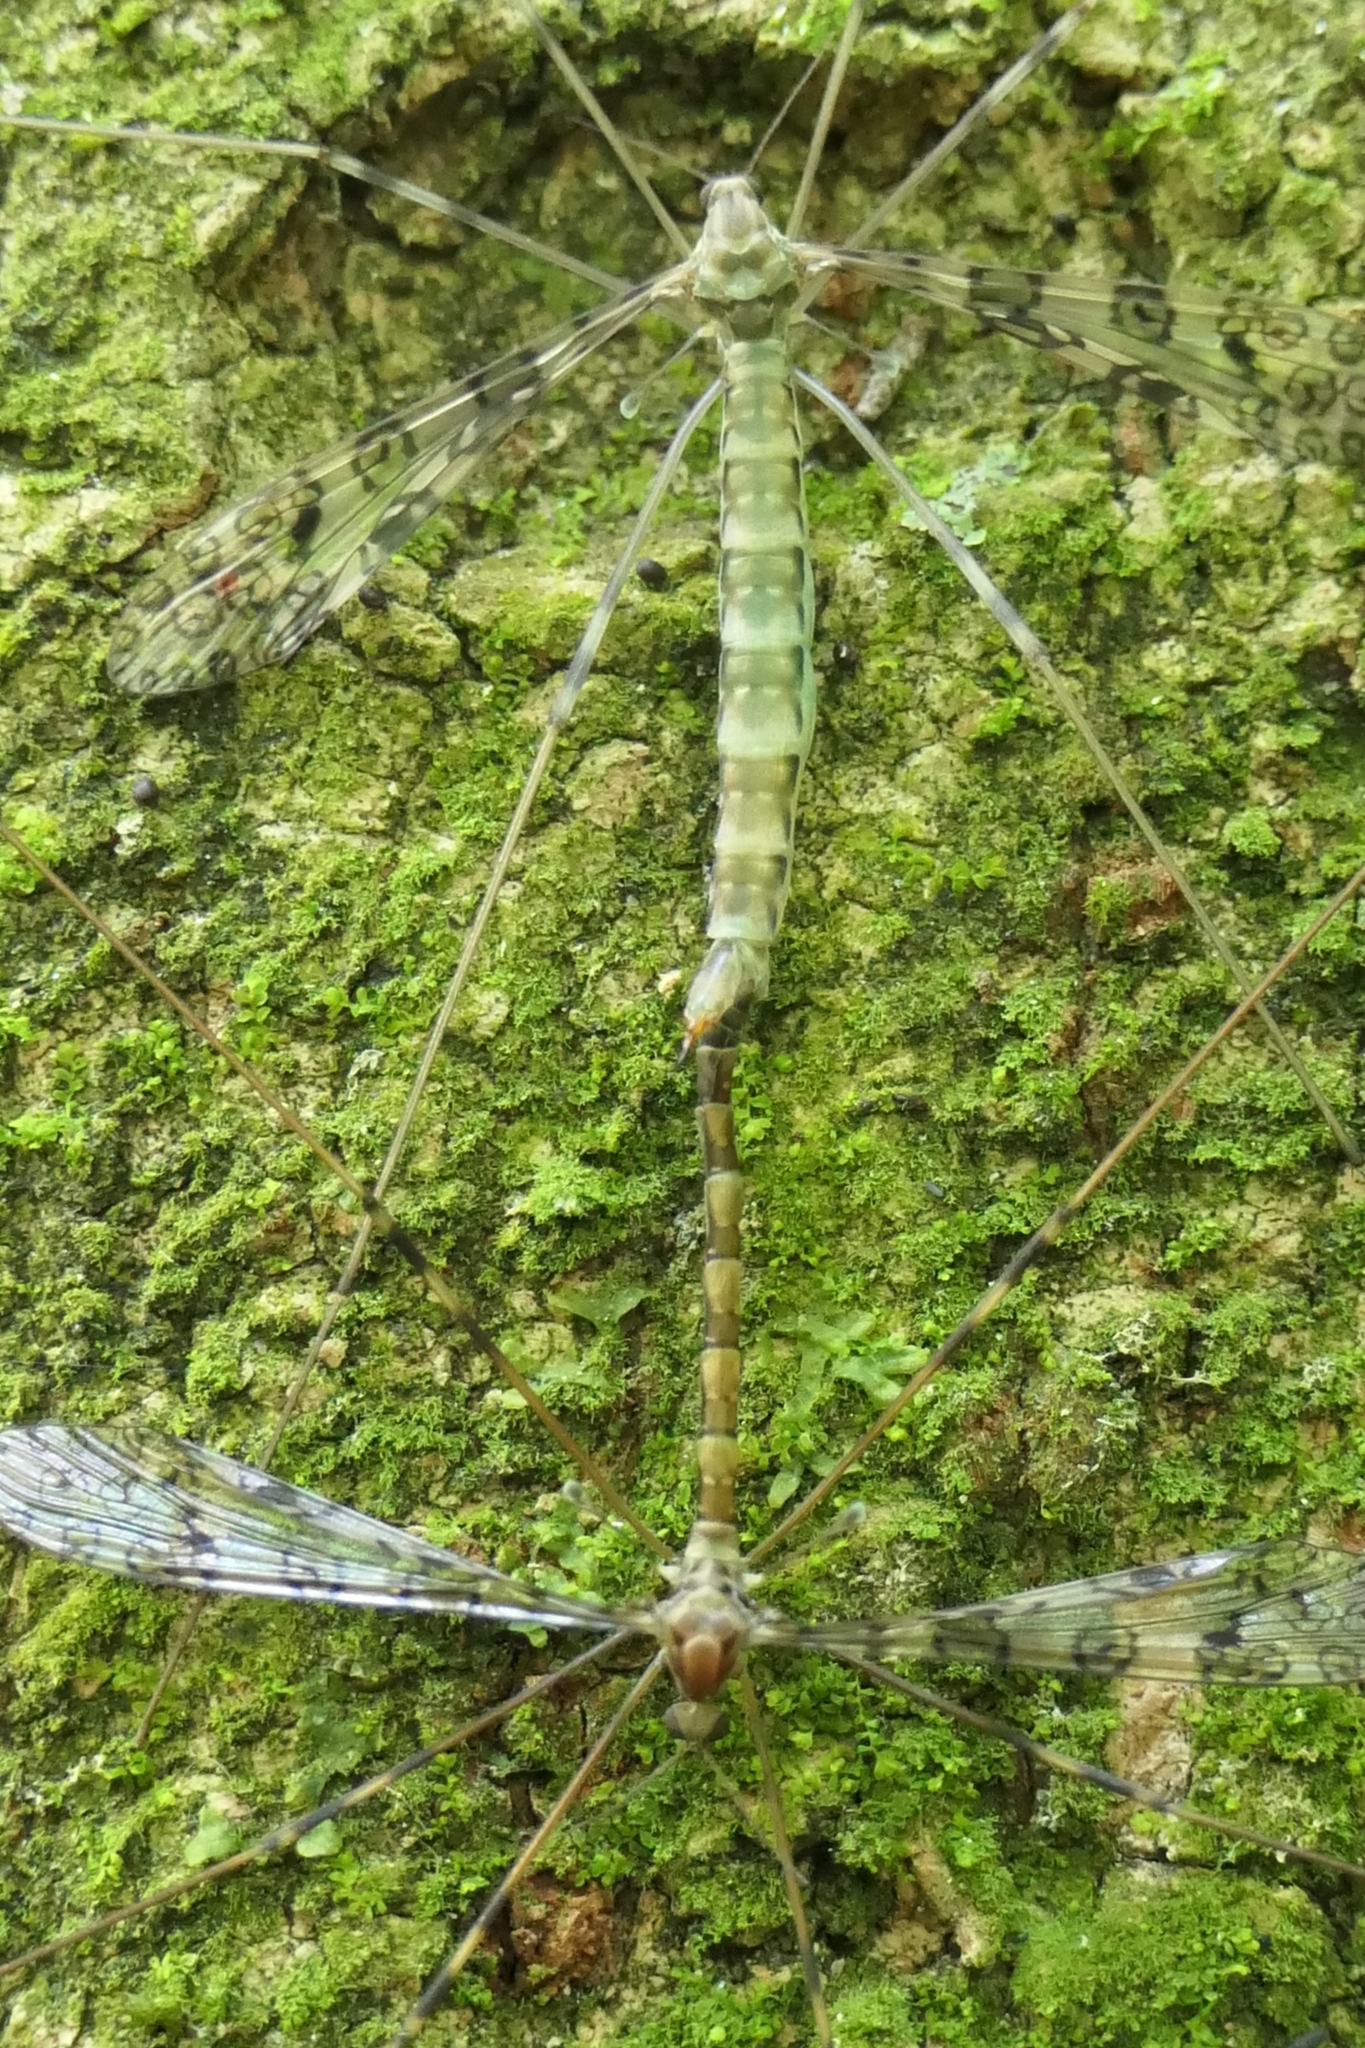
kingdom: Animalia
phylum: Arthropoda
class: Insecta
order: Diptera
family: Limoniidae
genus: Austrolimnophila
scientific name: Austrolimnophila argus
